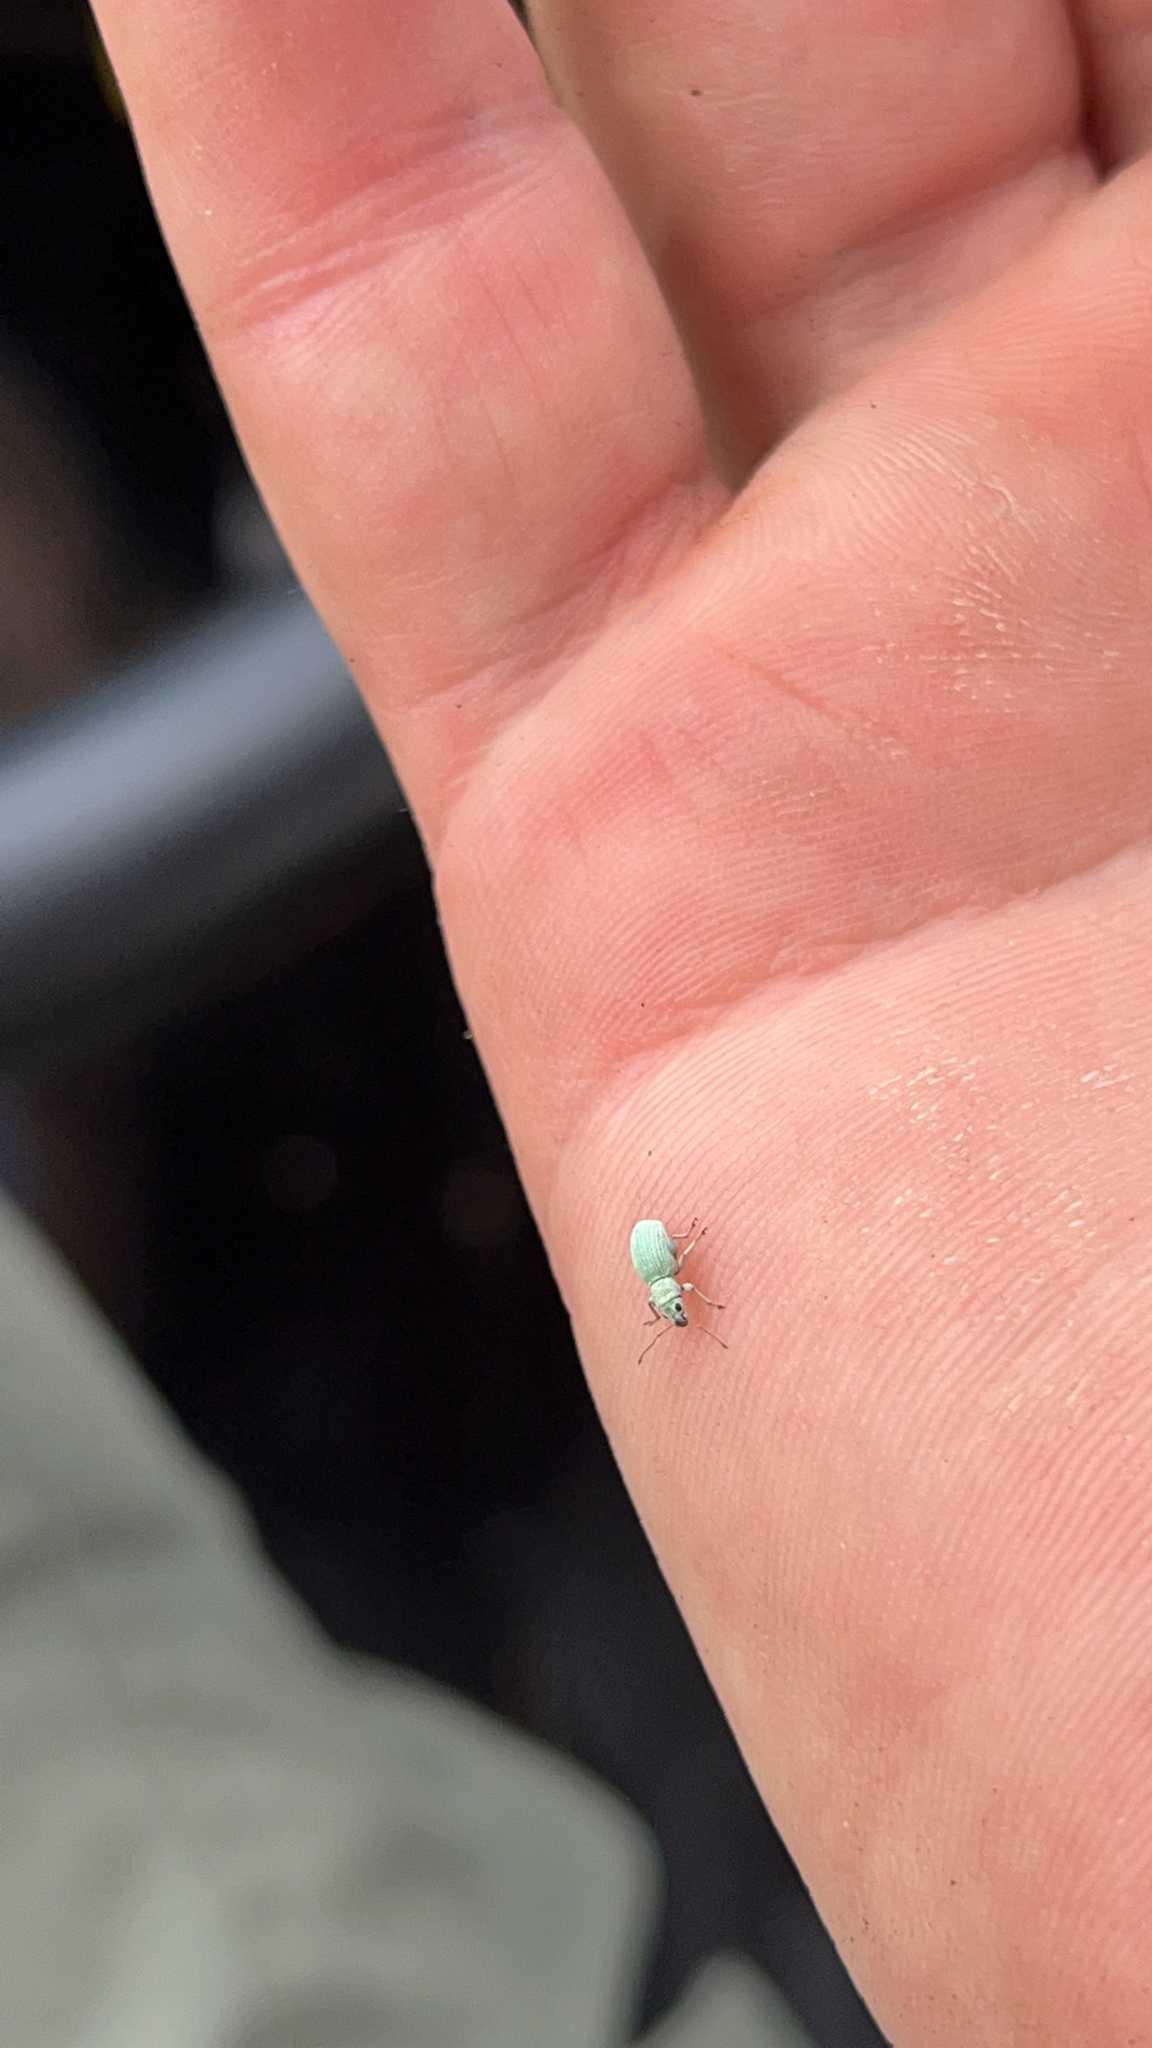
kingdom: Animalia
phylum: Arthropoda
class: Insecta
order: Coleoptera
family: Curculionidae
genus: Mitostylus
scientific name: Mitostylus tenuis
